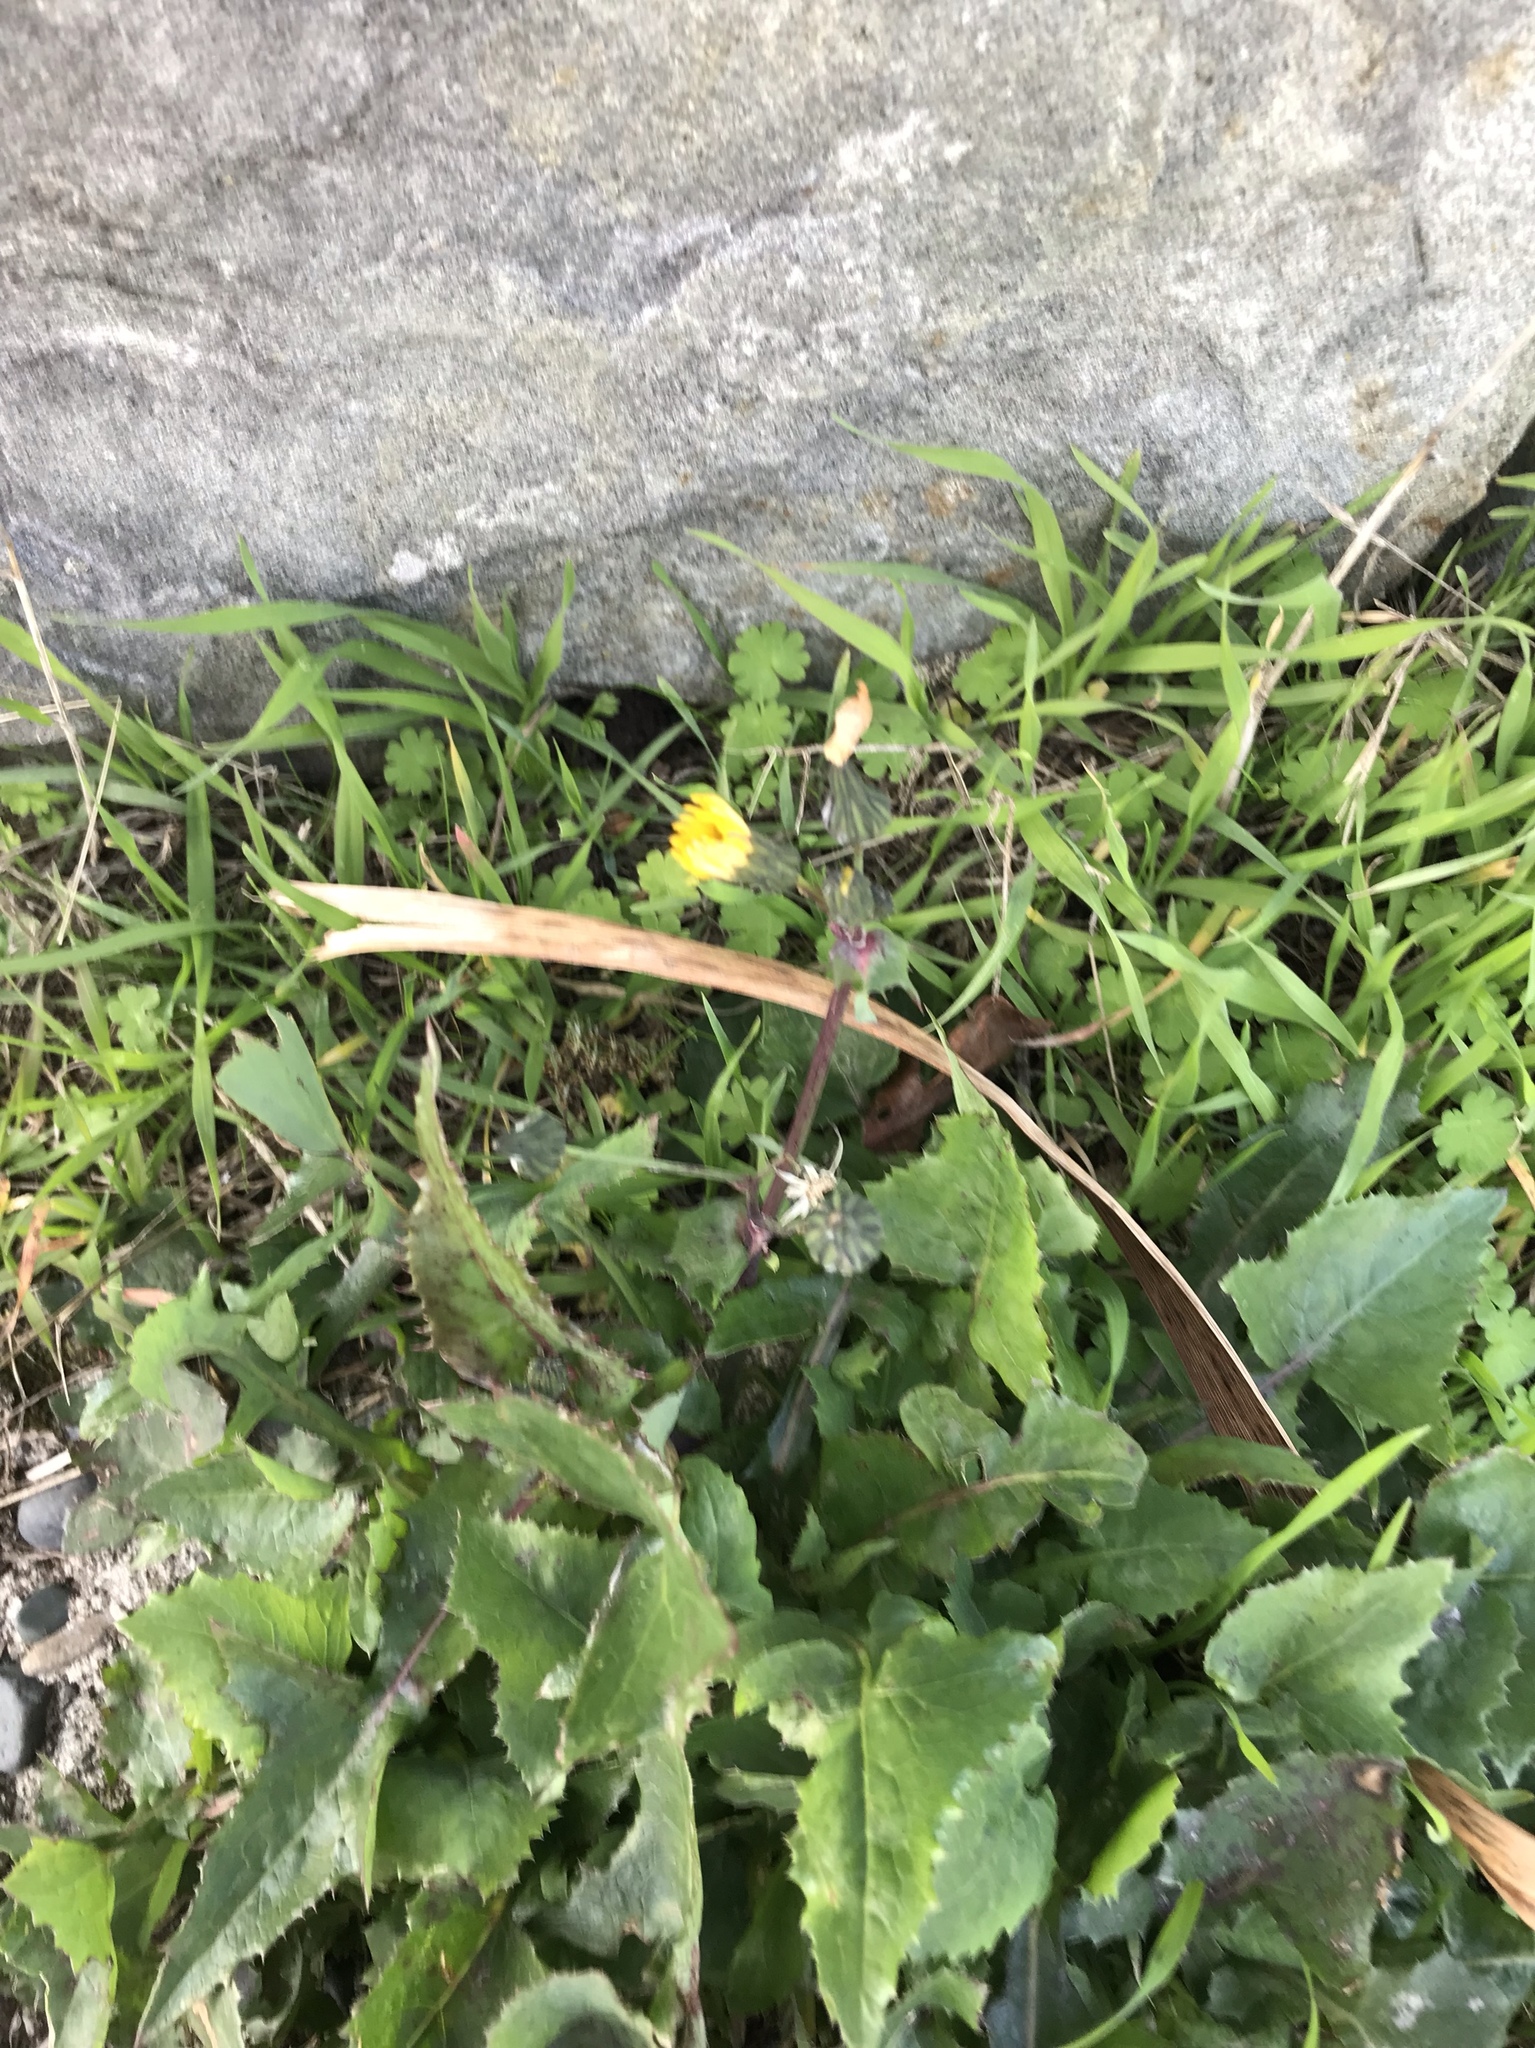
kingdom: Plantae
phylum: Tracheophyta
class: Magnoliopsida
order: Asterales
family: Asteraceae
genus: Sonchus
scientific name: Sonchus oleraceus
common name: Common sowthistle
